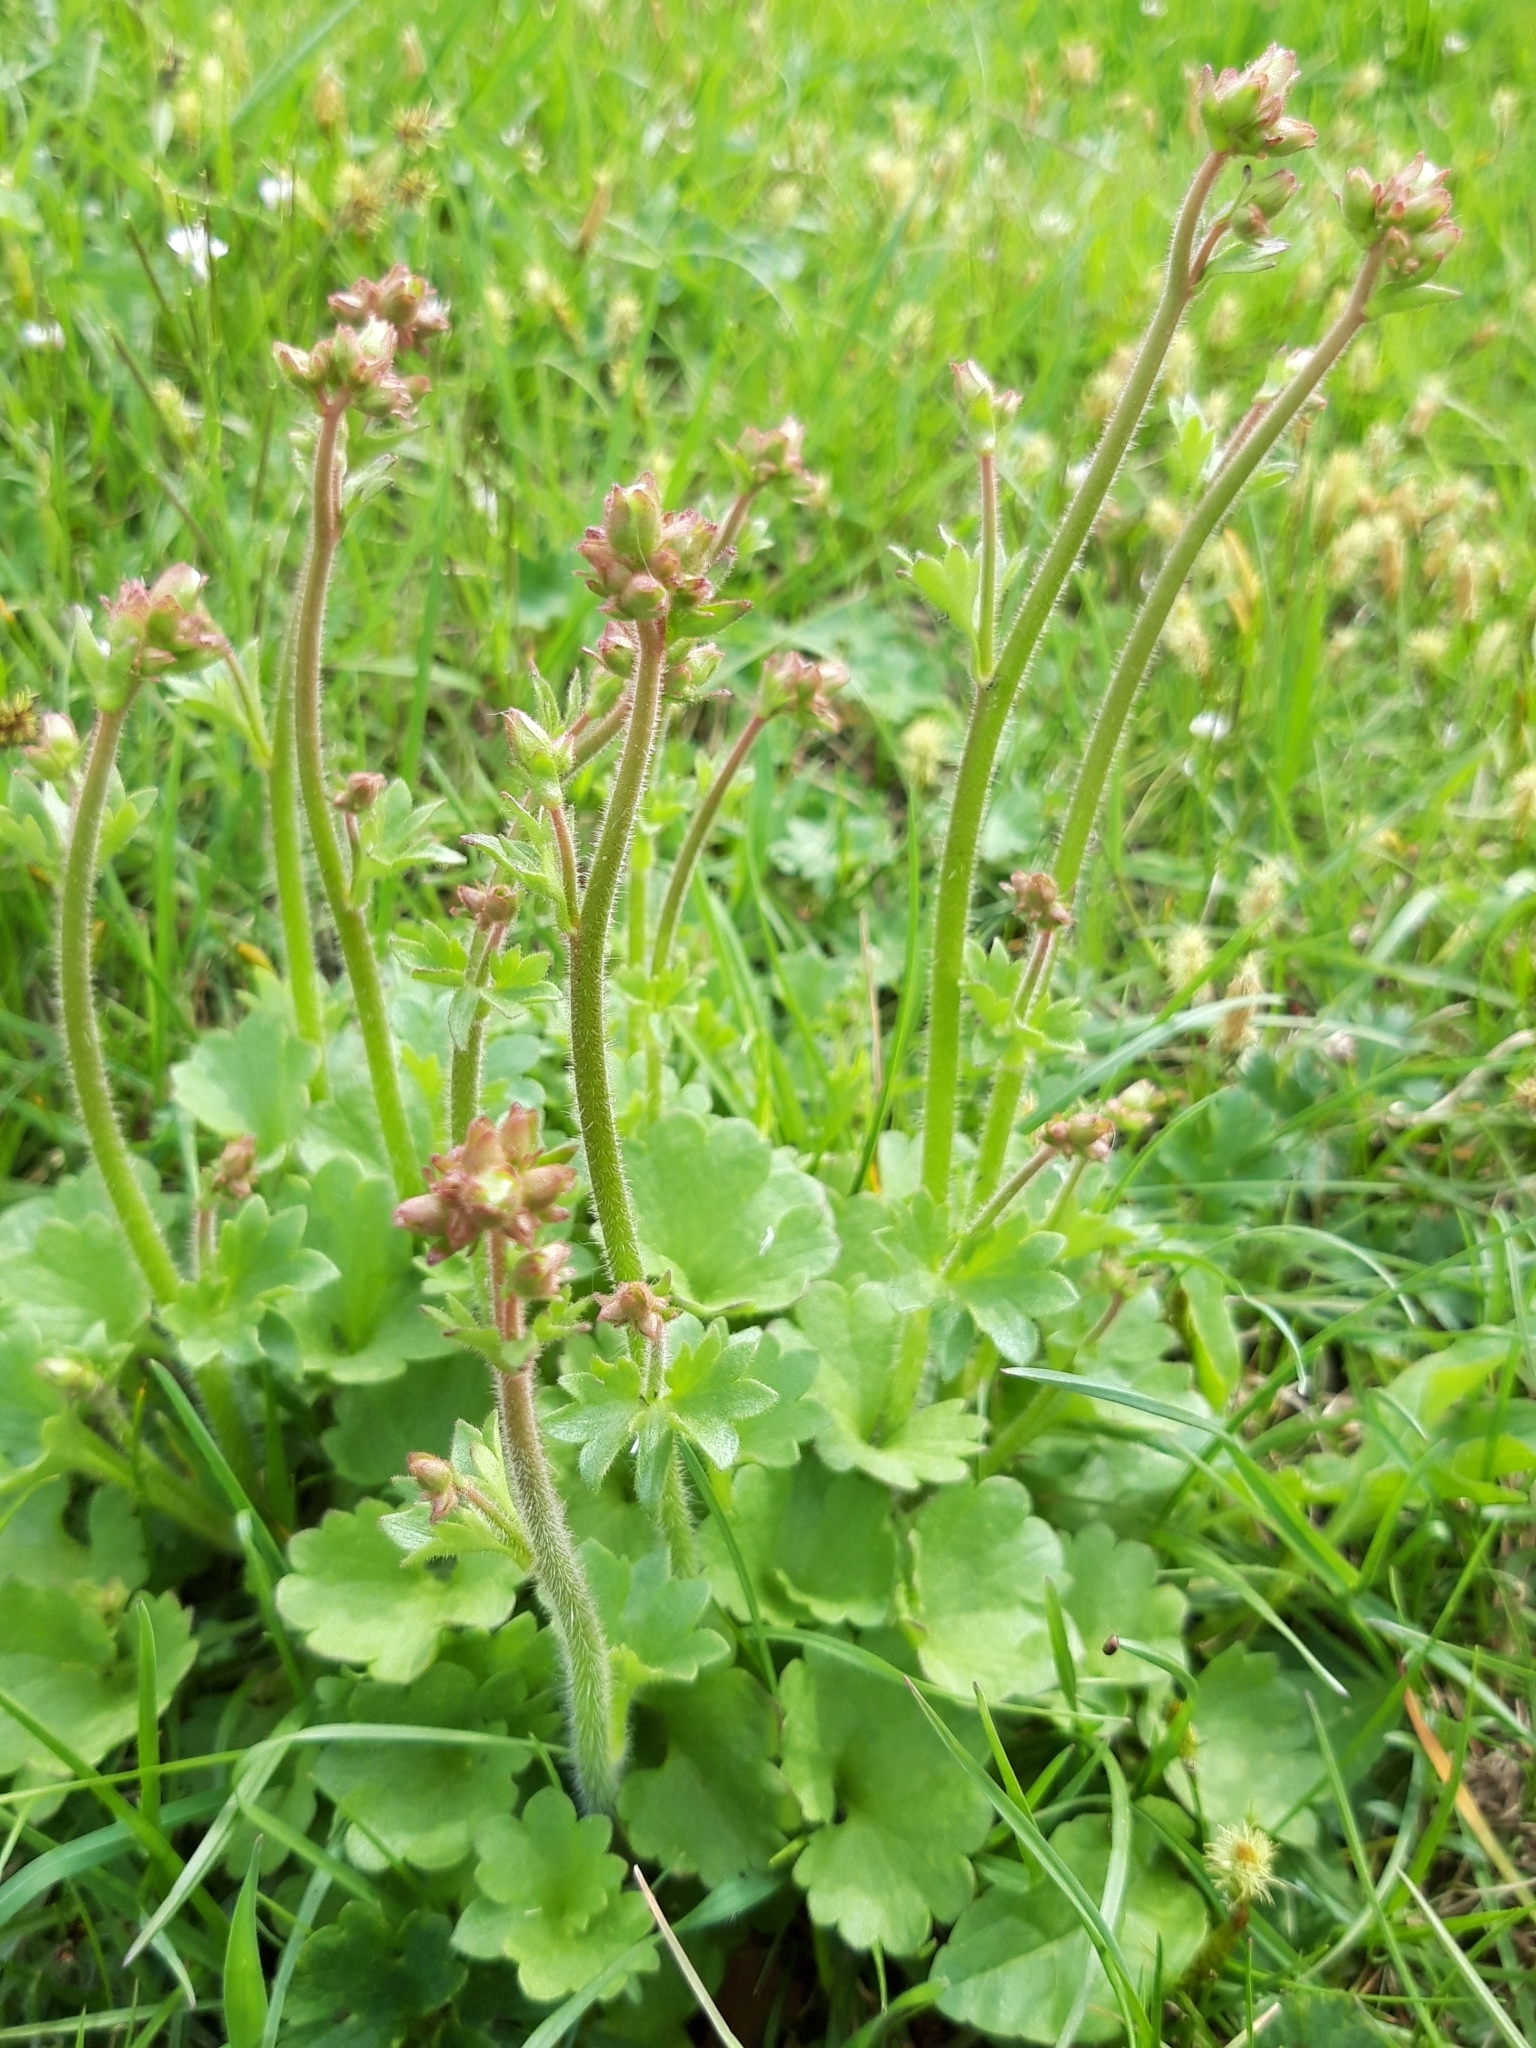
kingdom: Plantae
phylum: Tracheophyta
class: Magnoliopsida
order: Saxifragales
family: Saxifragaceae
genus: Saxifraga
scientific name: Saxifraga granulata
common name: Meadow saxifrage
